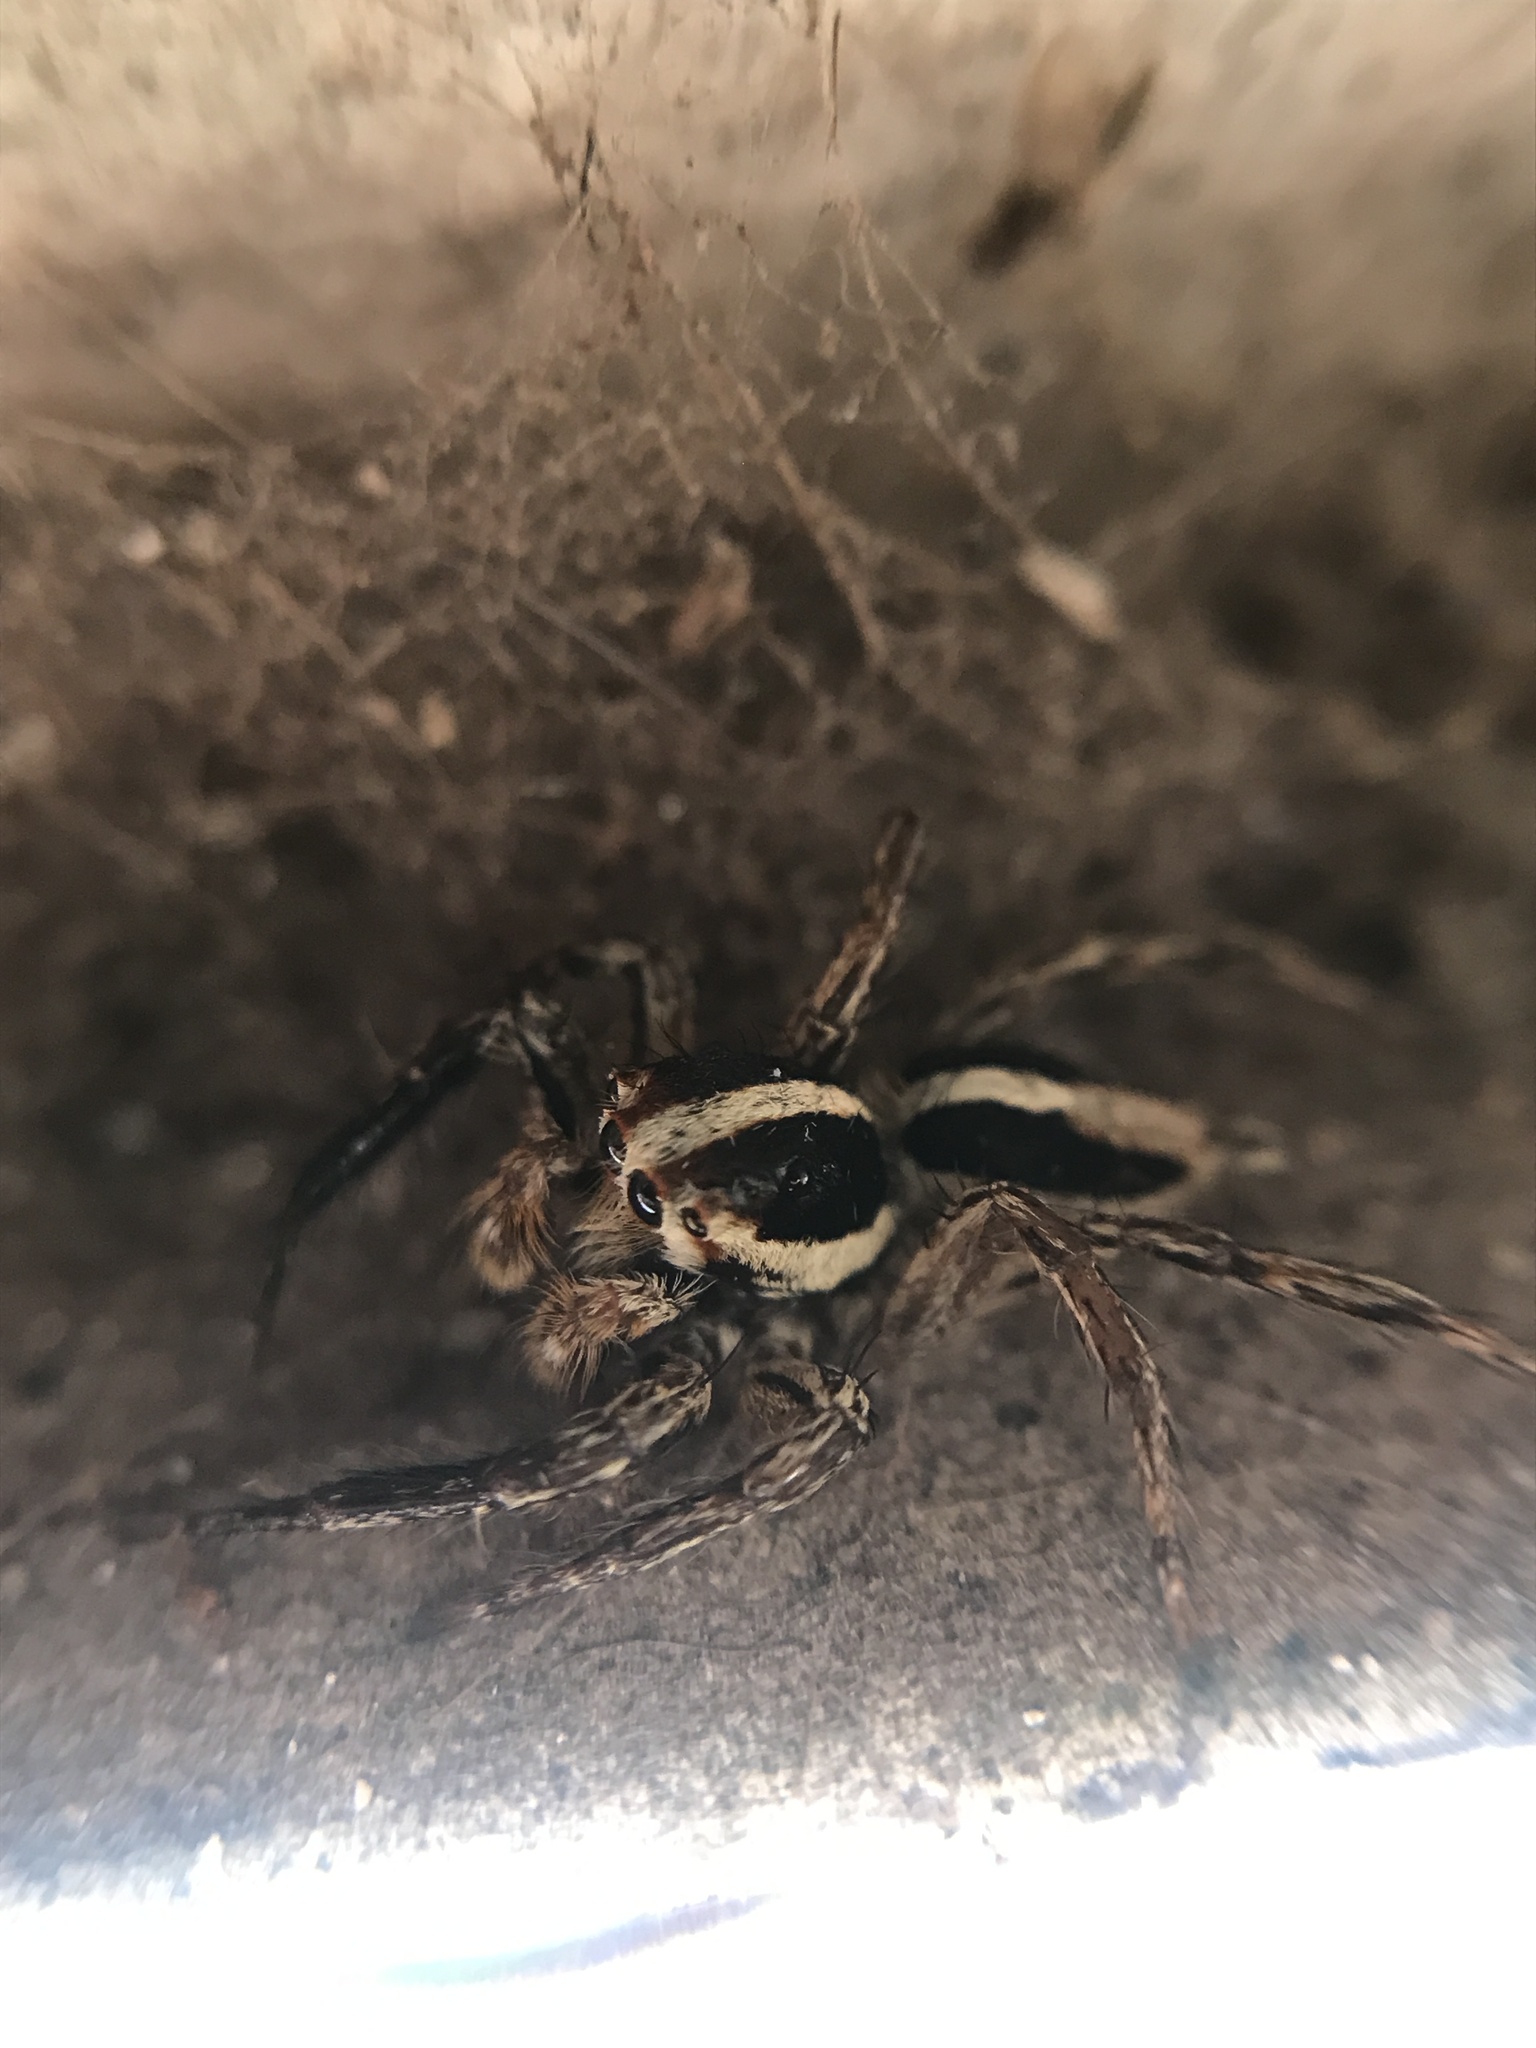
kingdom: Animalia
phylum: Arthropoda
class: Arachnida
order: Araneae
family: Salticidae
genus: Plexippus
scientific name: Plexippus paykulli
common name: Pantropical jumper
